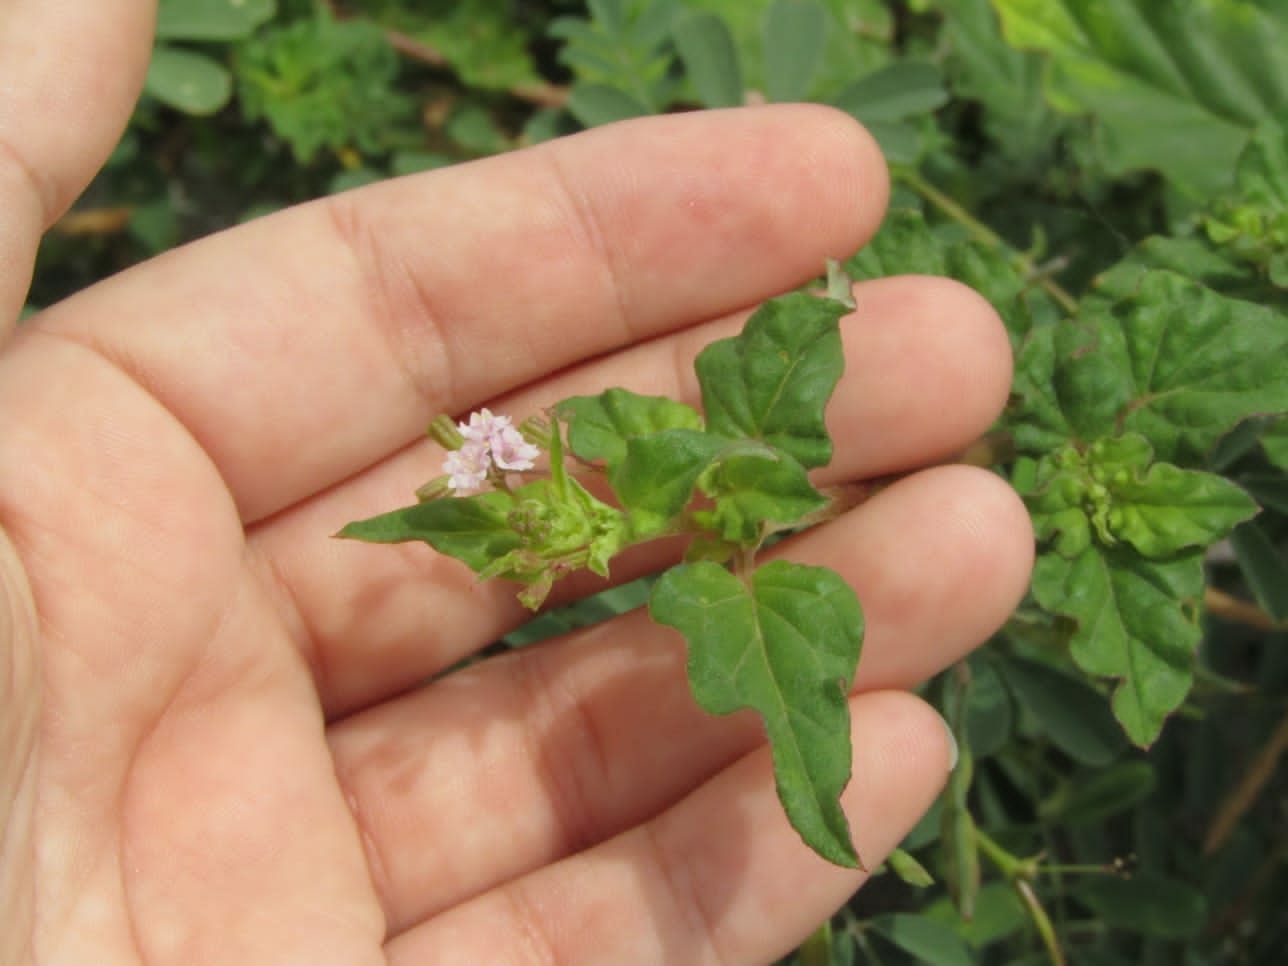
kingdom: Plantae
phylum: Tracheophyta
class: Magnoliopsida
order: Caryophyllales
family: Nyctaginaceae
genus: Boerhavia
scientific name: Boerhavia erecta
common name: Erect spiderling
